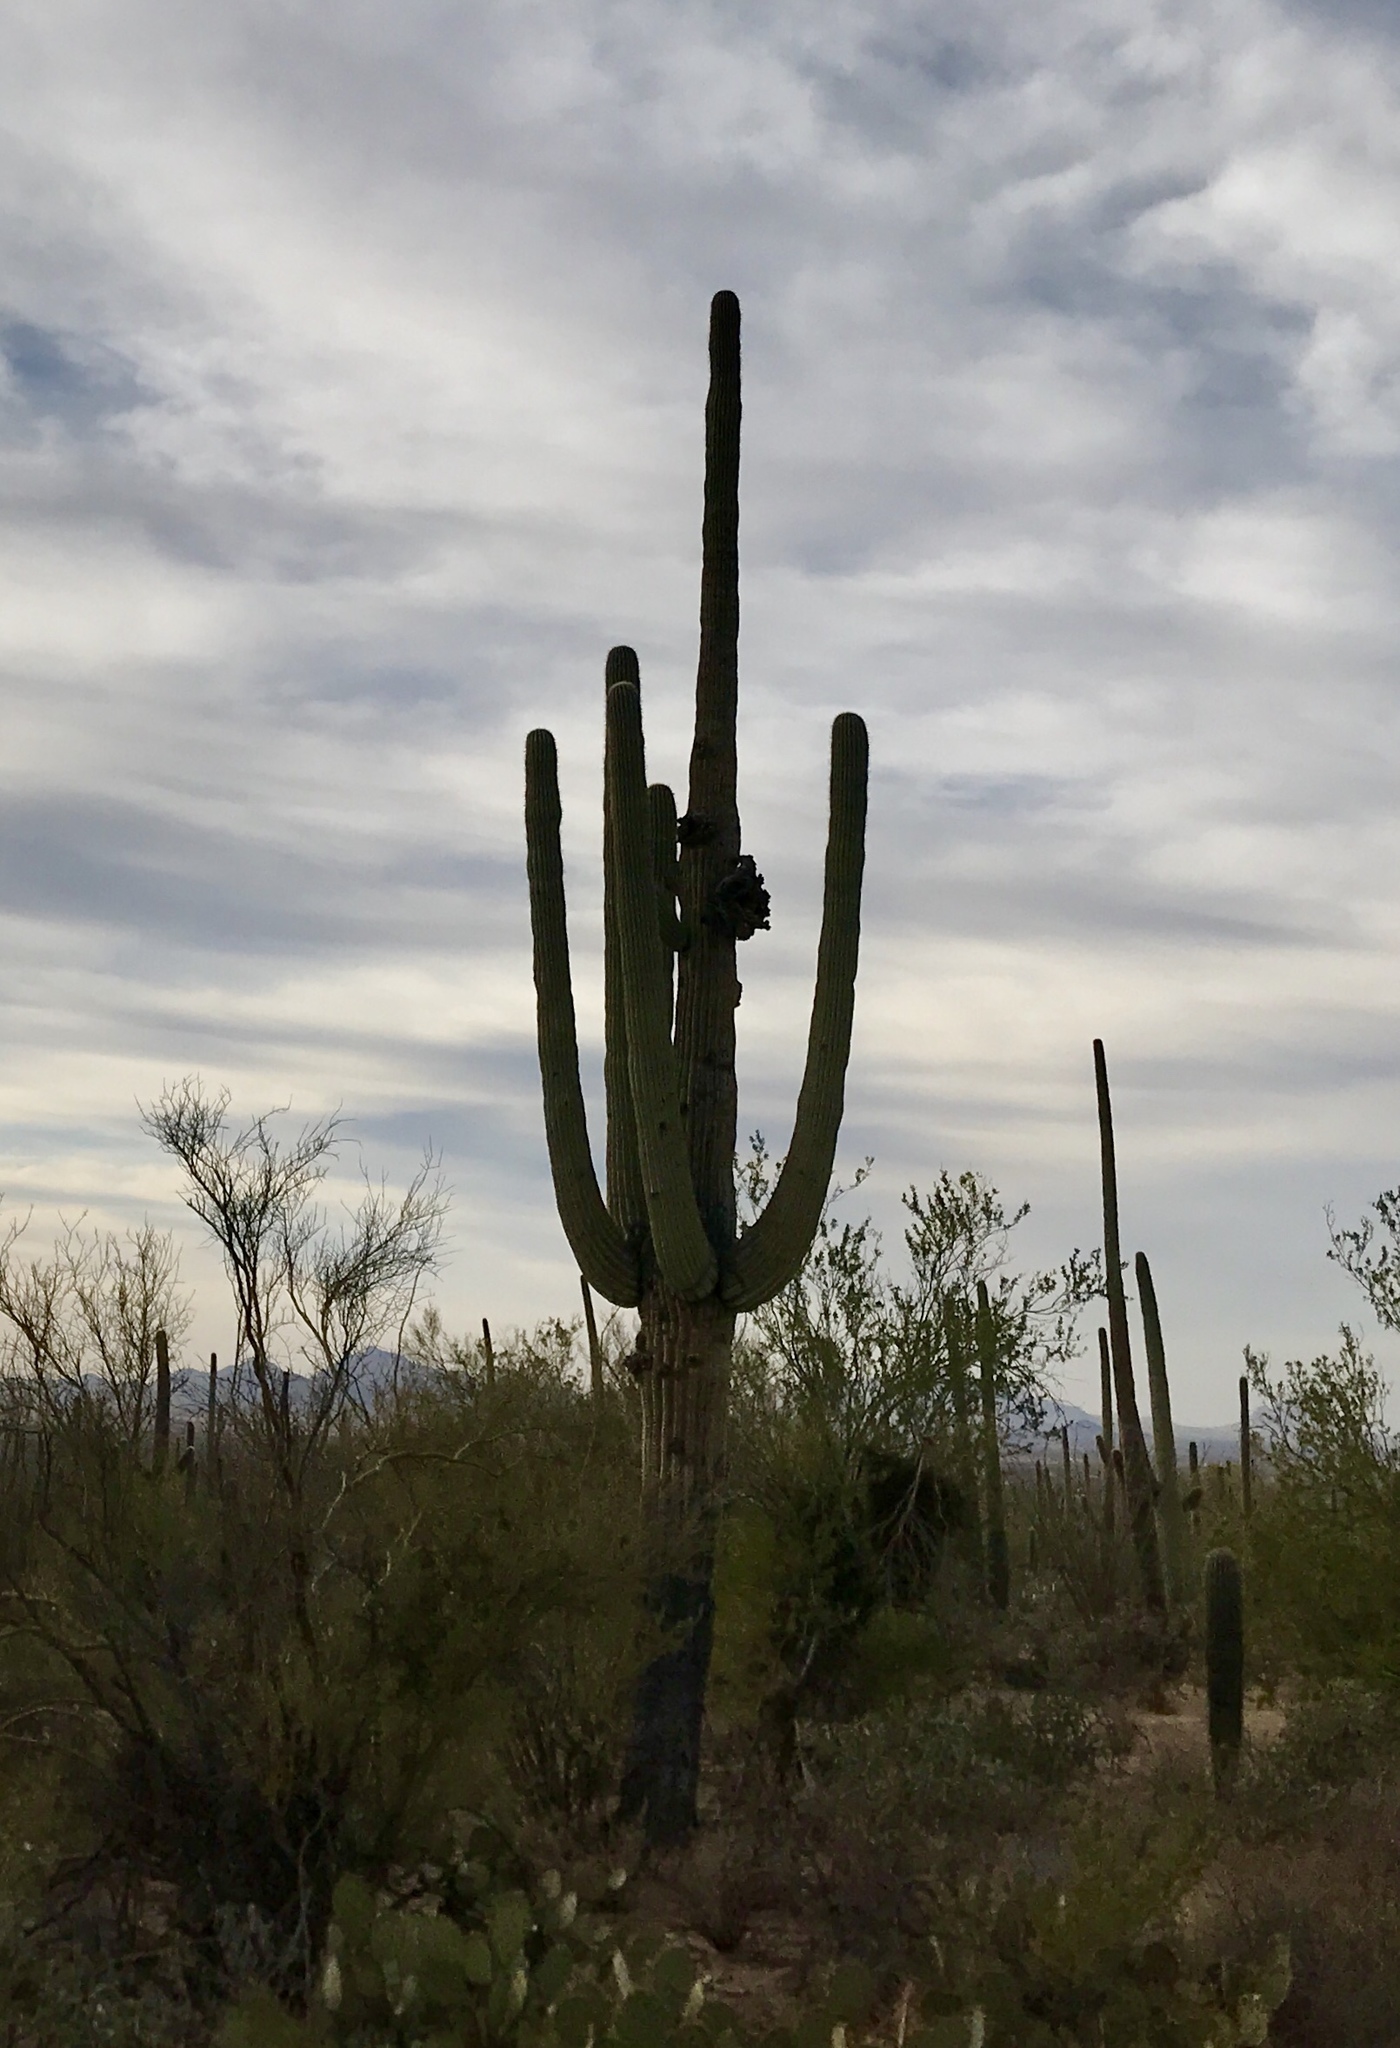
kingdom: Plantae
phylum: Tracheophyta
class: Magnoliopsida
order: Caryophyllales
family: Cactaceae
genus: Carnegiea
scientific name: Carnegiea gigantea
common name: Saguaro
